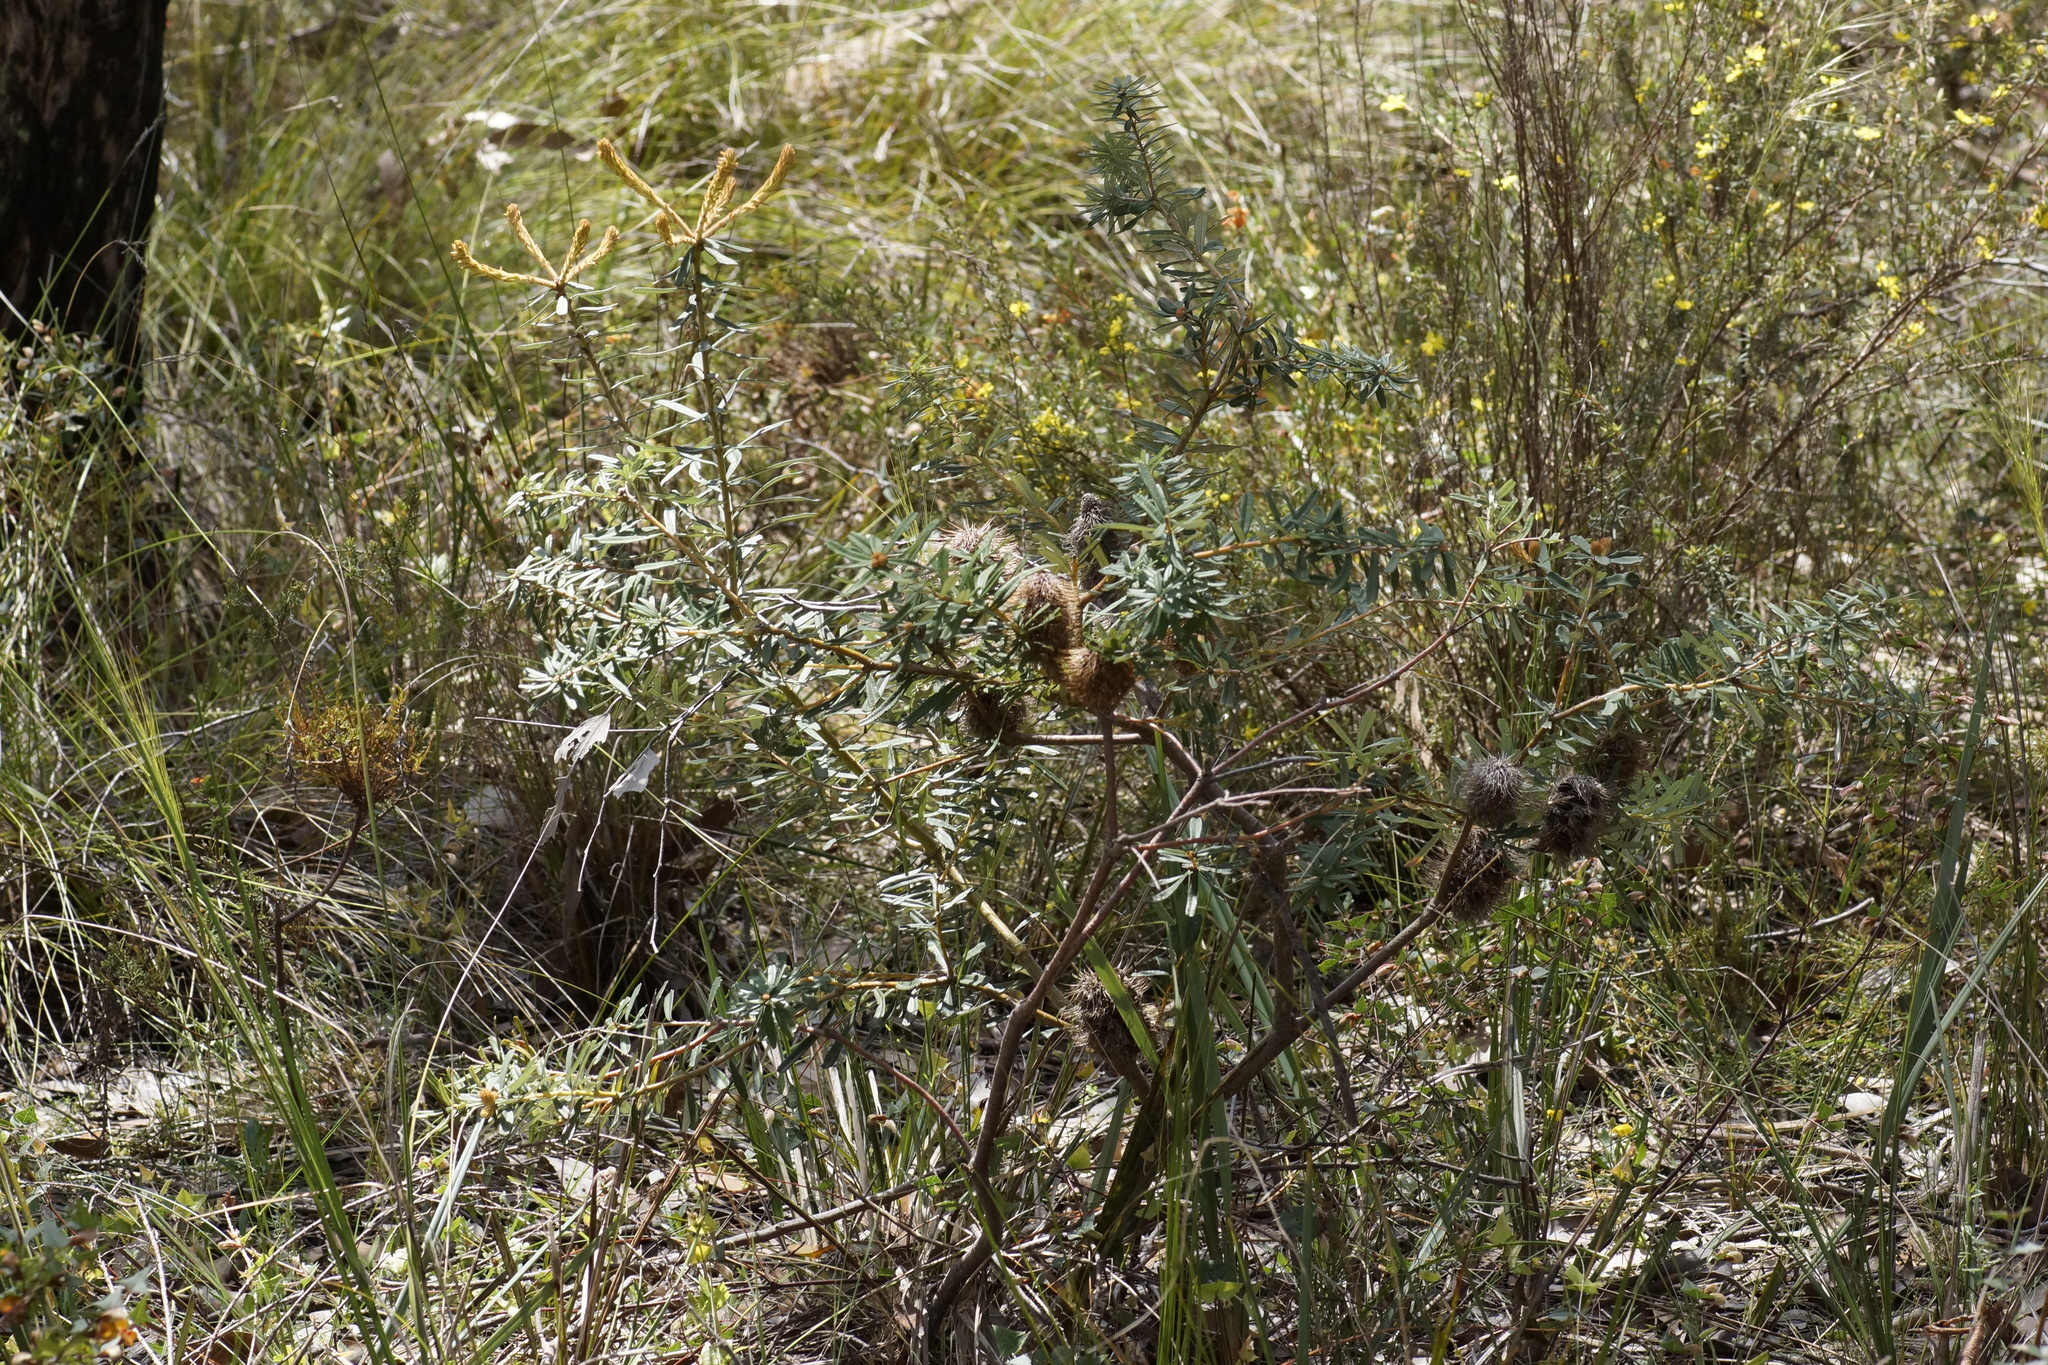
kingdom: Plantae
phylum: Tracheophyta
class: Magnoliopsida
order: Proteales
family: Proteaceae
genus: Banksia
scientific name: Banksia marginata
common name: Silver banksia
